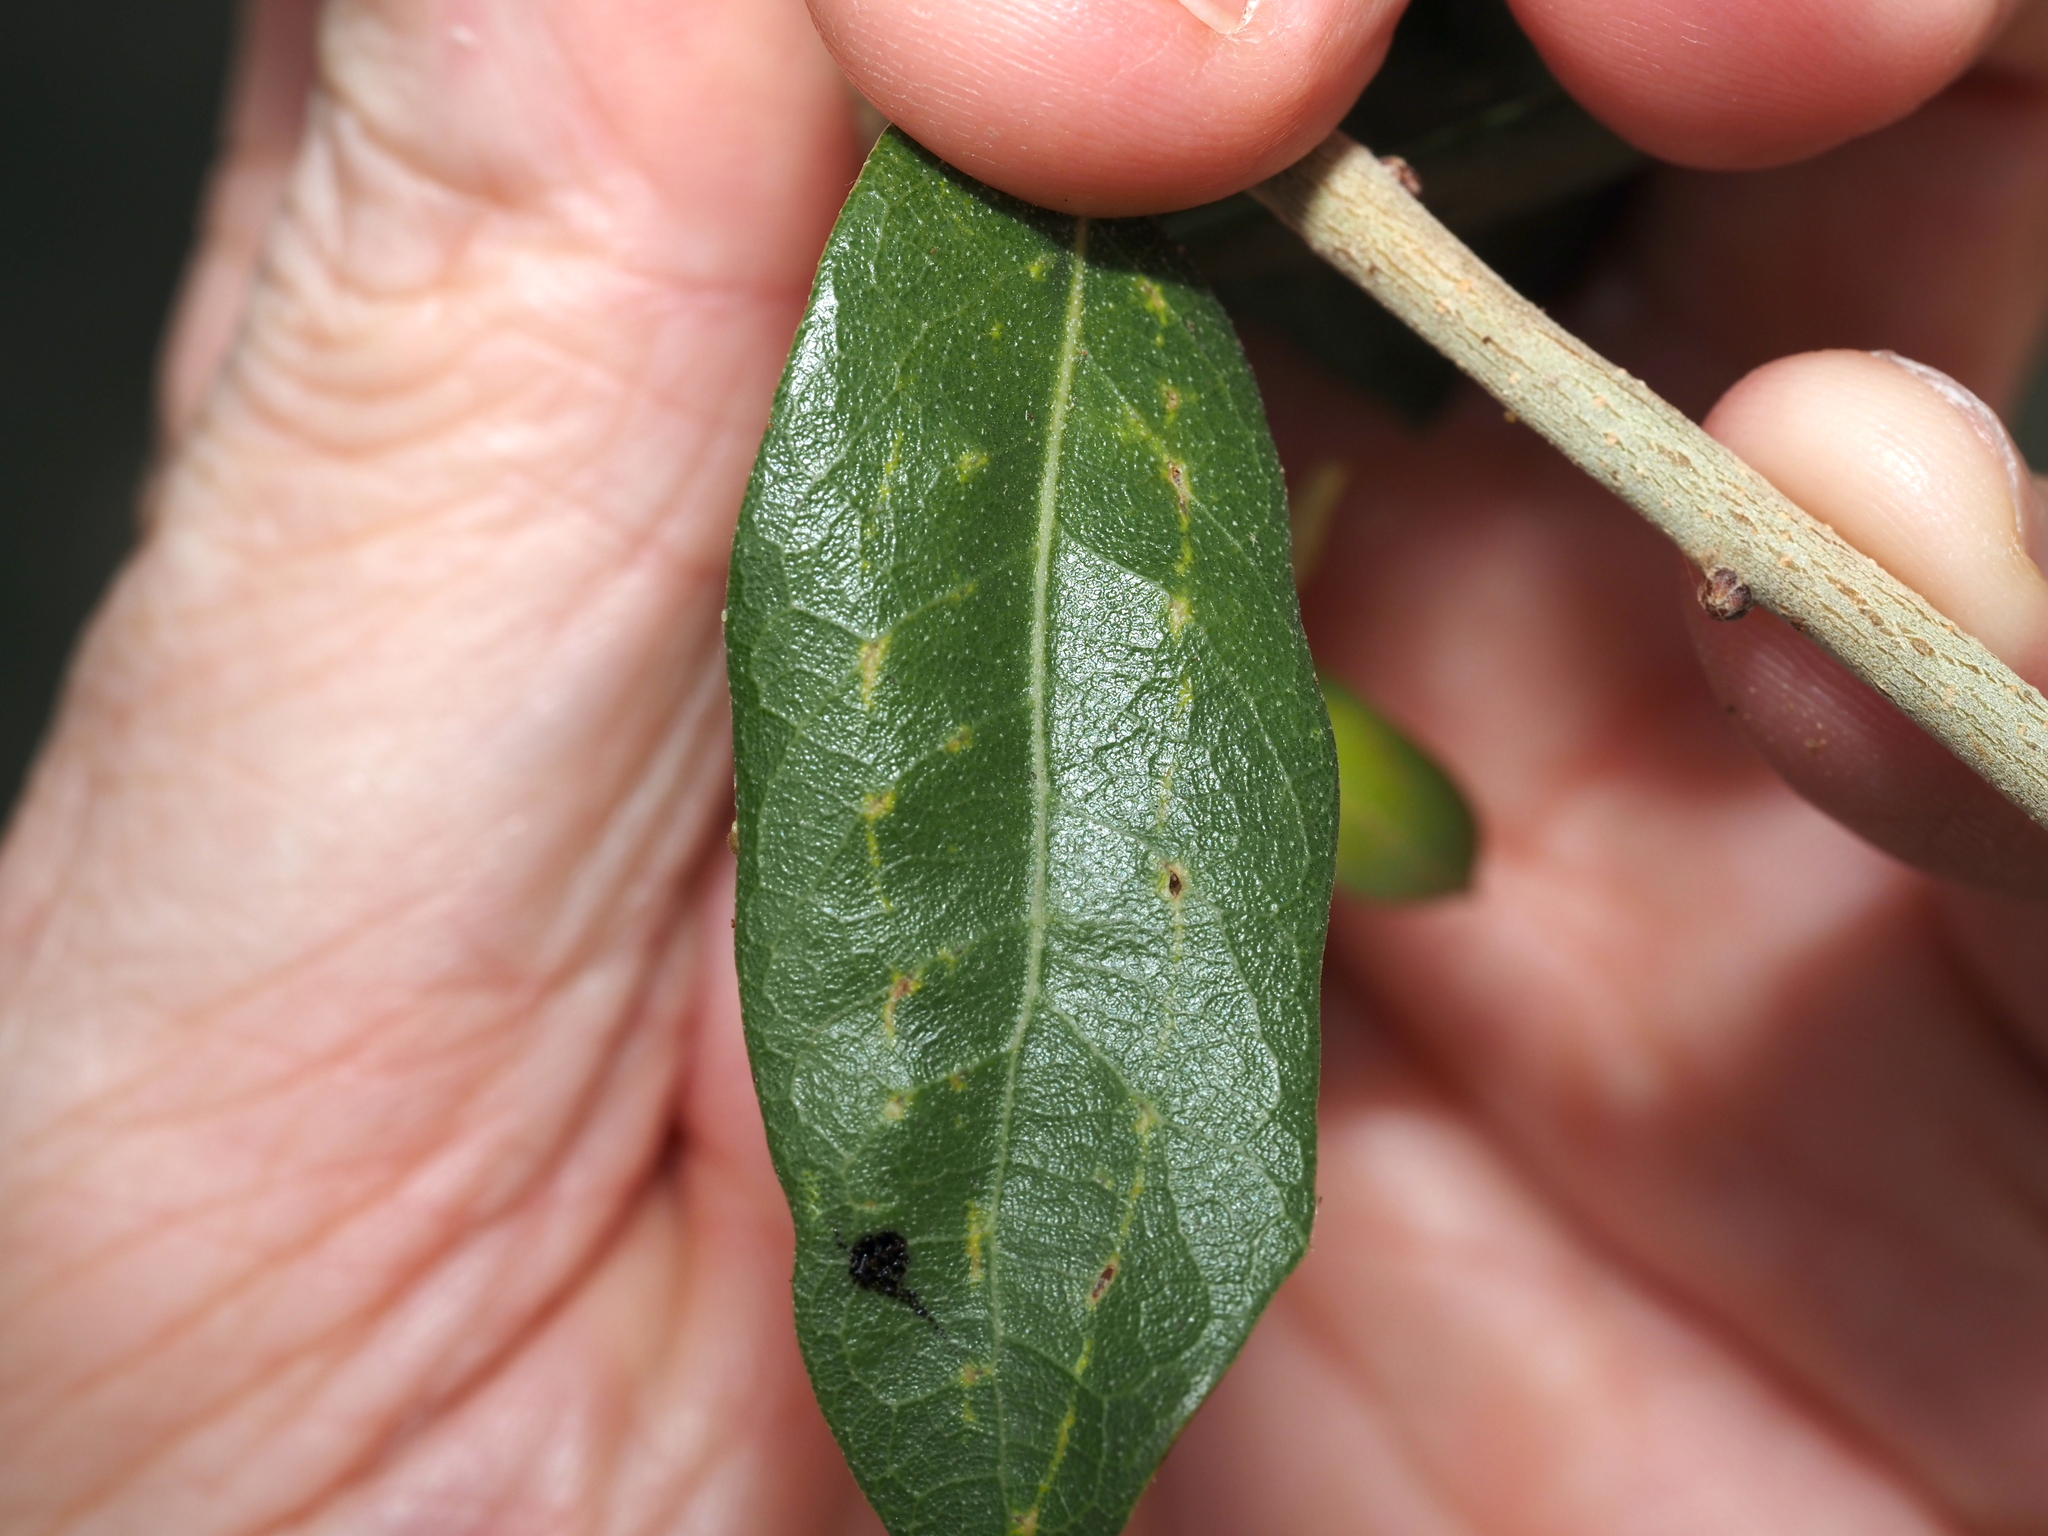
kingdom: Animalia
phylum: Arthropoda
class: Insecta
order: Hymenoptera
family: Cynipidae
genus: Belonocnema
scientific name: Belonocnema kinseyi
